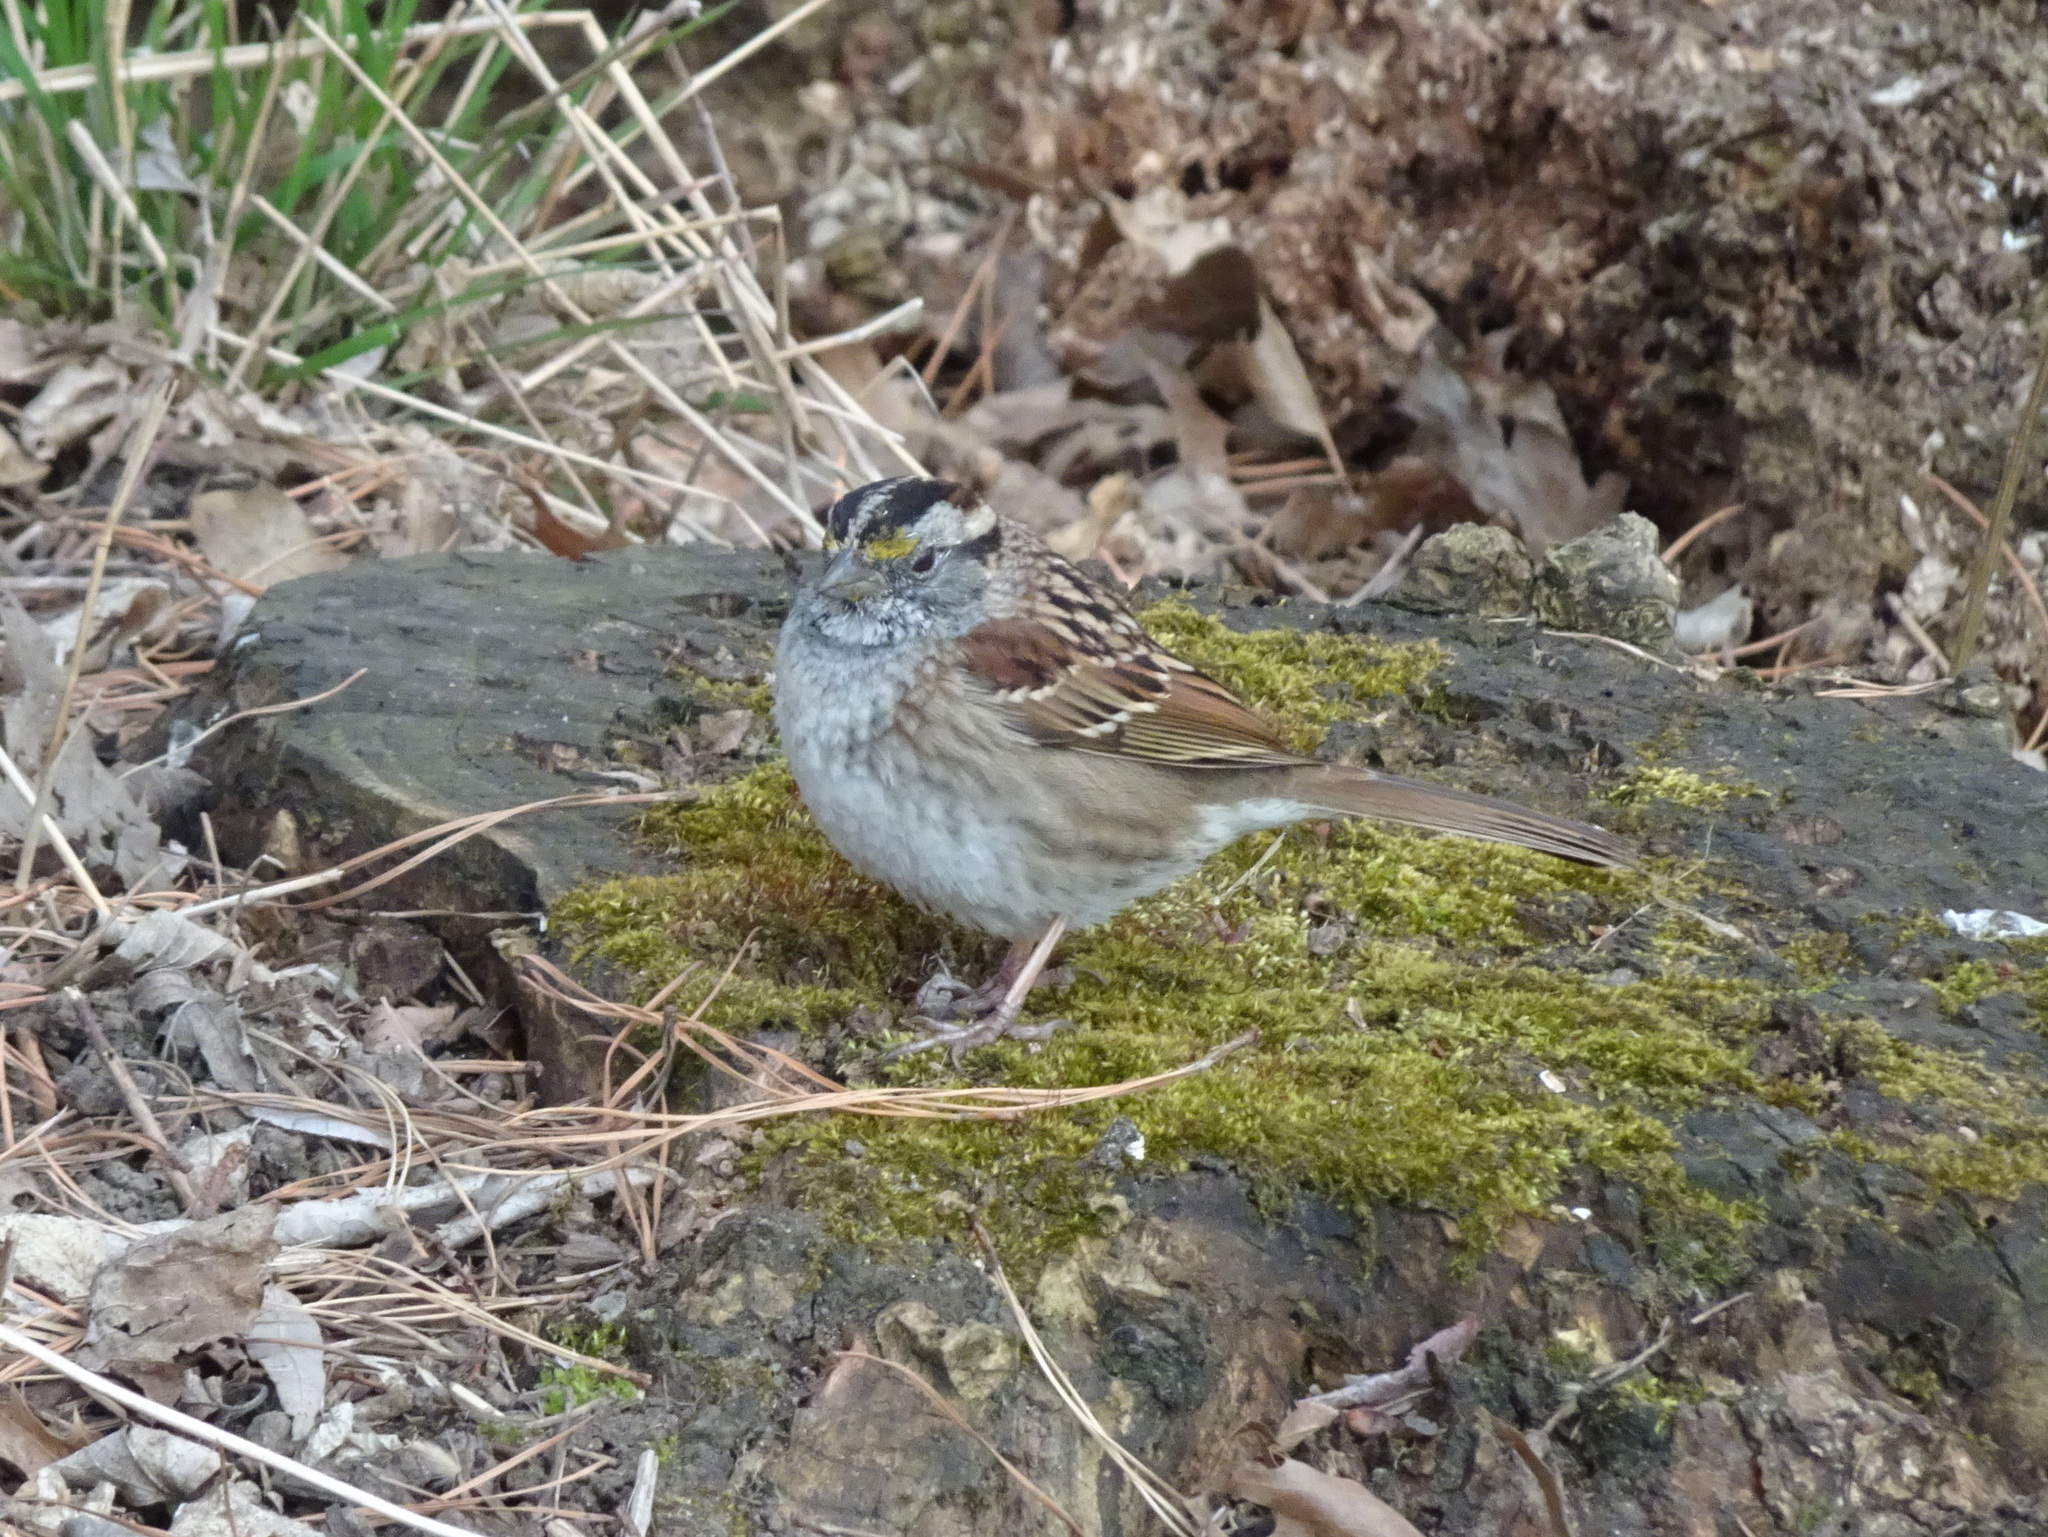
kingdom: Animalia
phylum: Chordata
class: Aves
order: Passeriformes
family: Passerellidae
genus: Zonotrichia
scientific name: Zonotrichia albicollis
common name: White-throated sparrow
